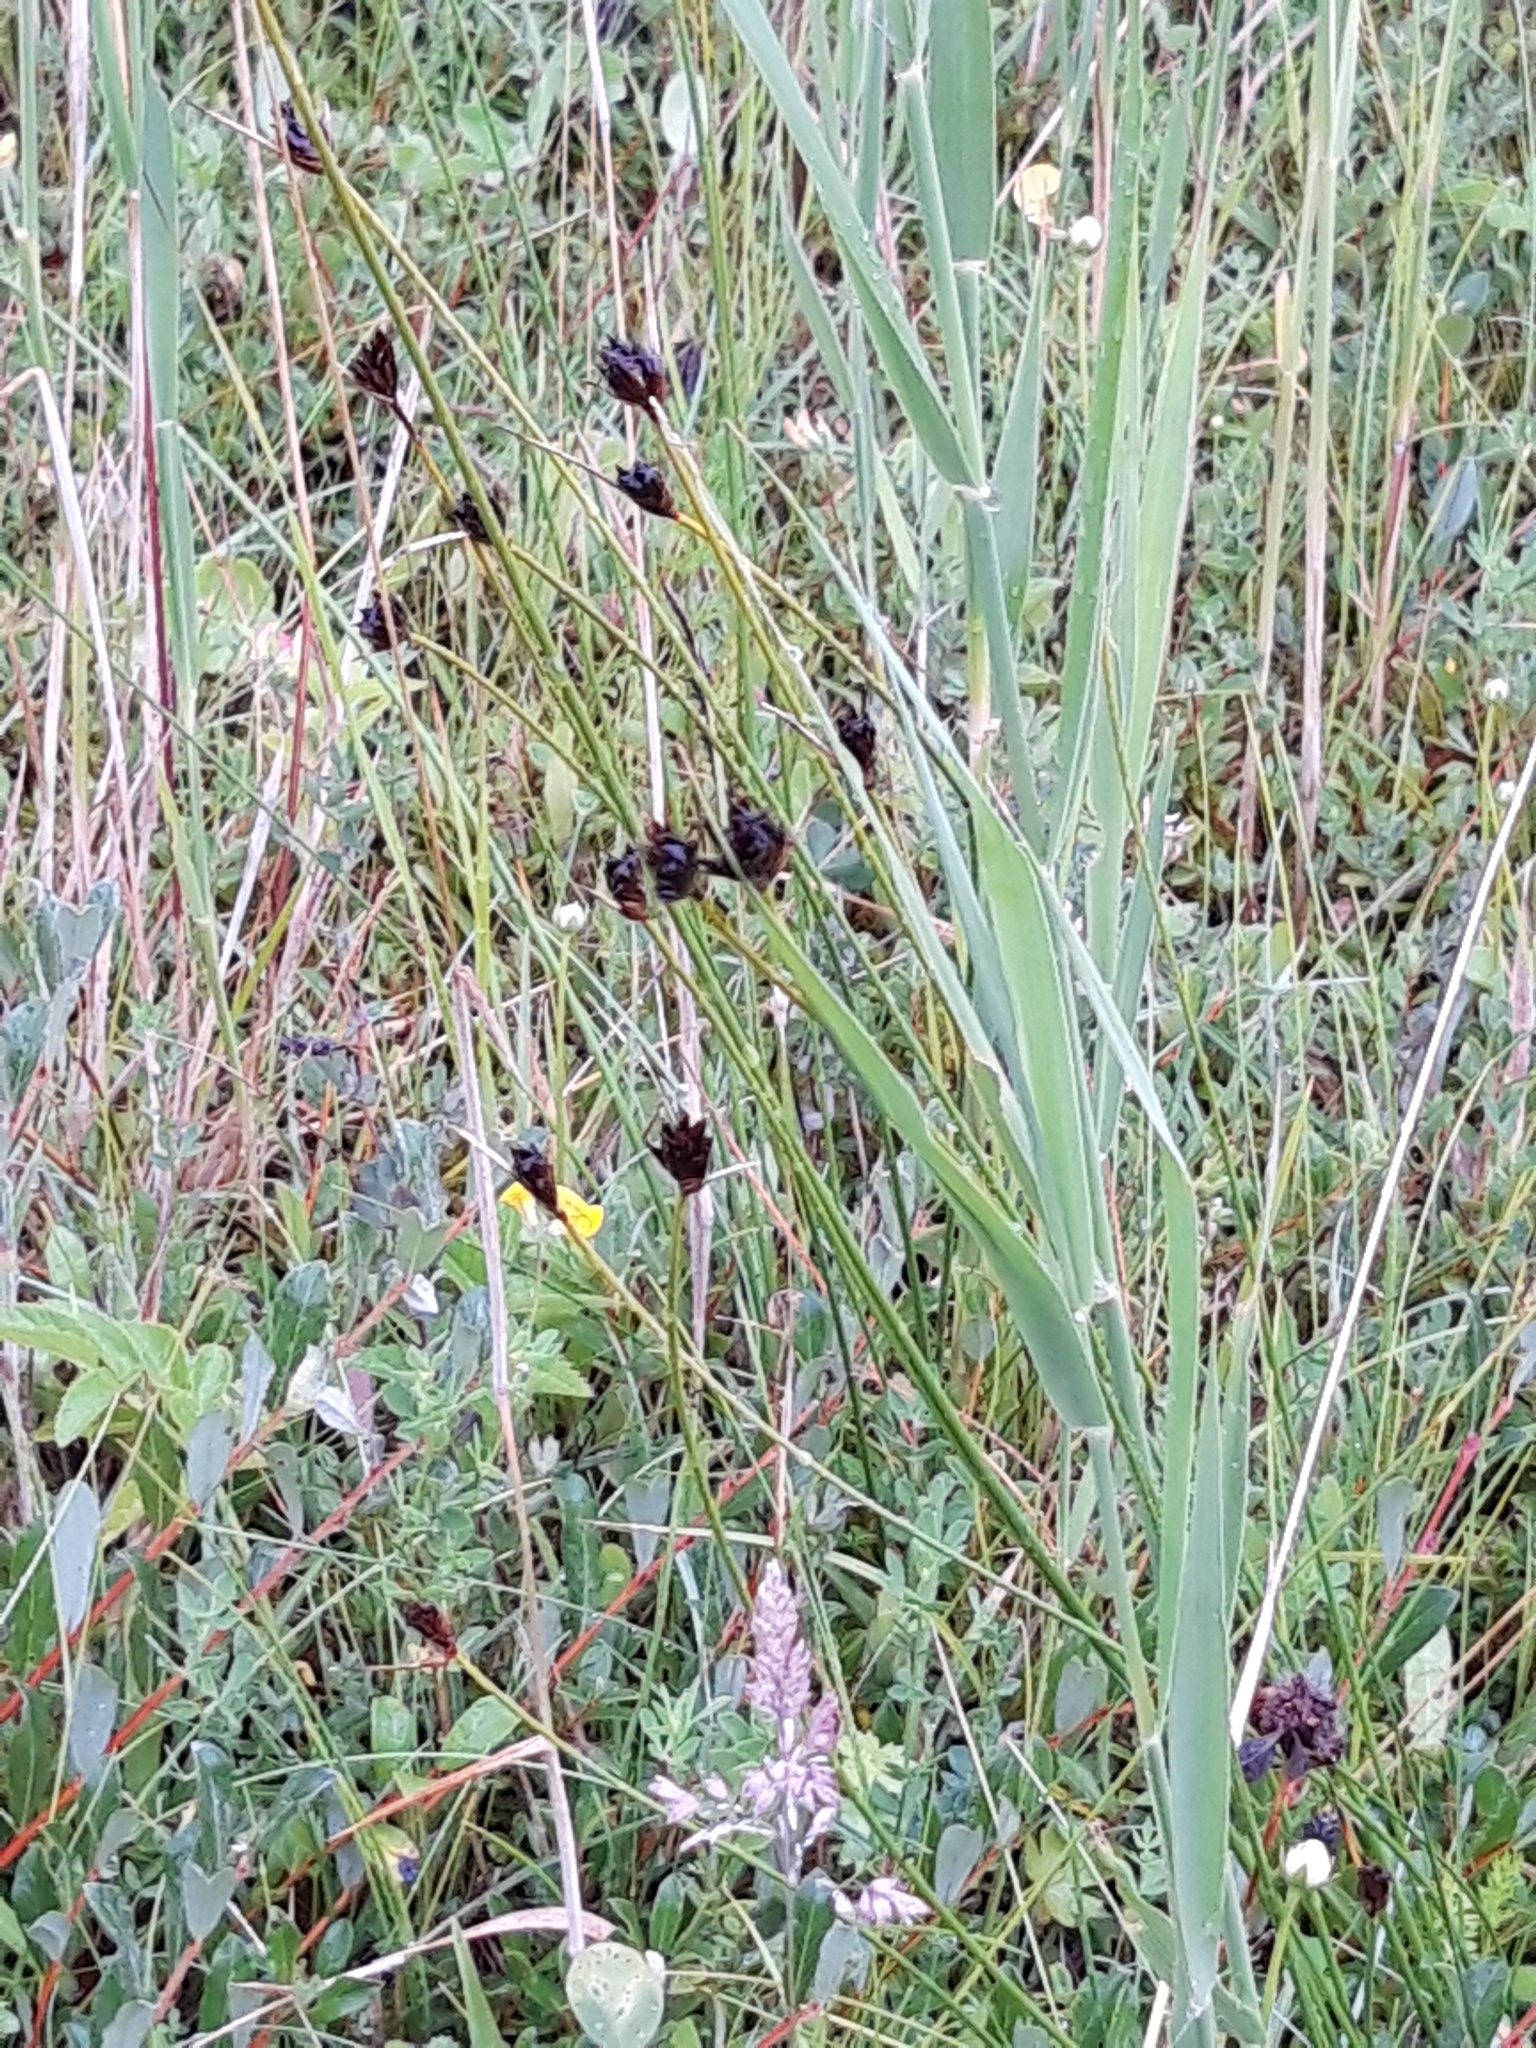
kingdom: Plantae
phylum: Tracheophyta
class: Liliopsida
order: Poales
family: Cyperaceae
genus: Schoenus
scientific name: Schoenus nigricans
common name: Black bog-rush
